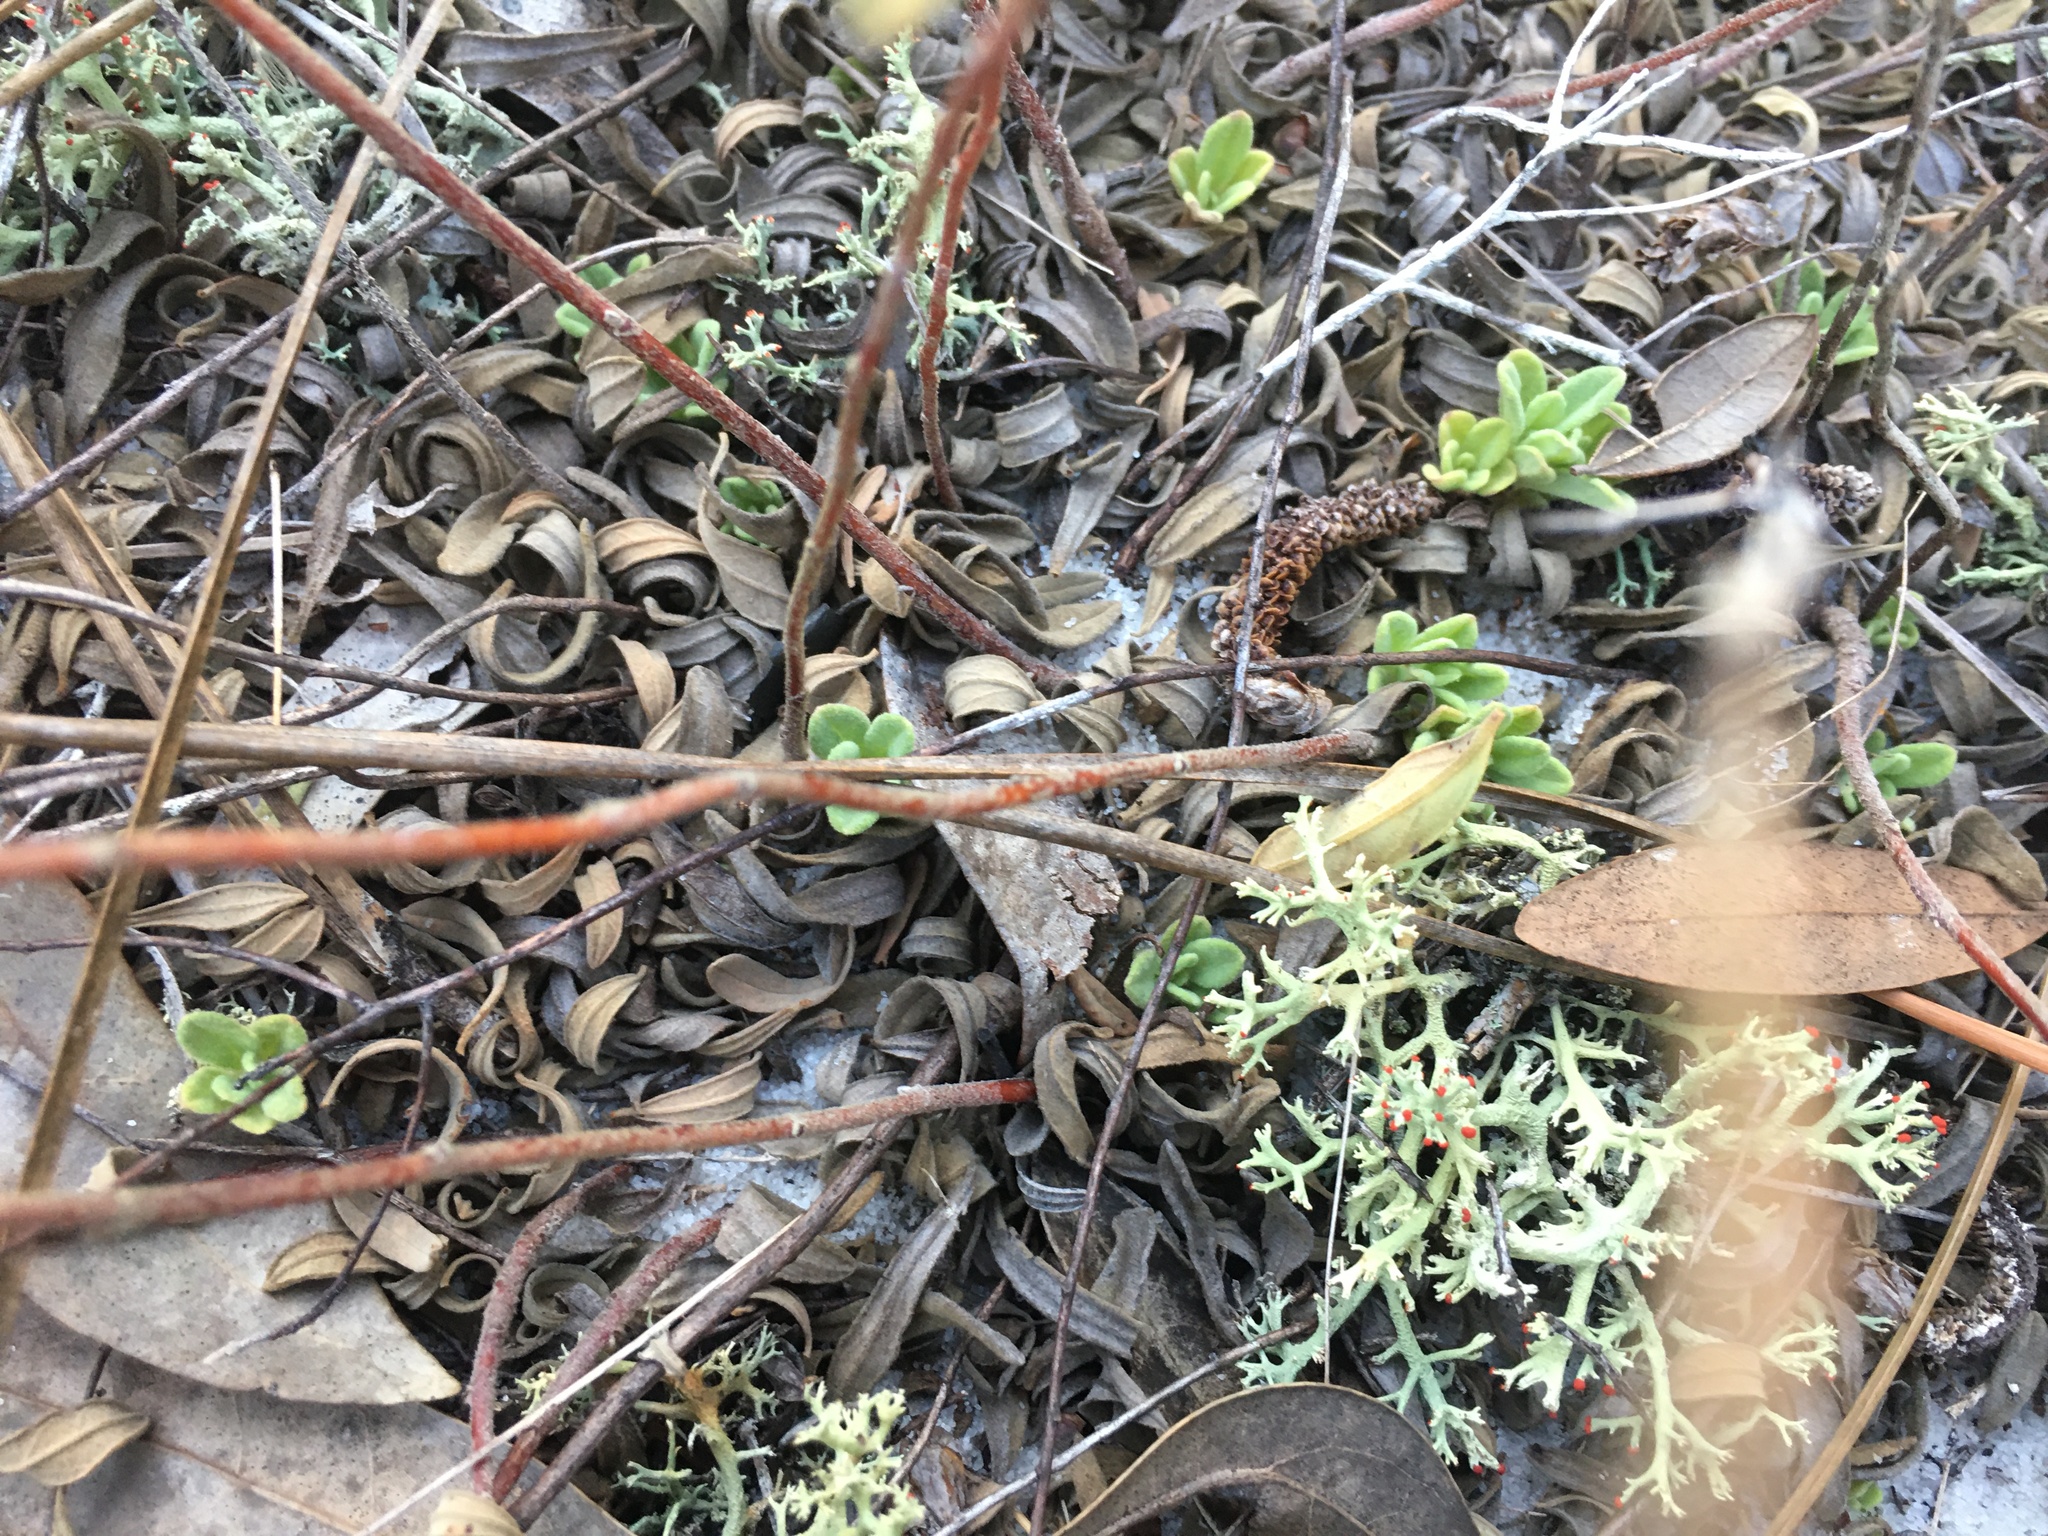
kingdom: Plantae
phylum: Tracheophyta
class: Magnoliopsida
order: Malvales
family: Cistaceae
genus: Crocanthemum
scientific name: Crocanthemum nashii
